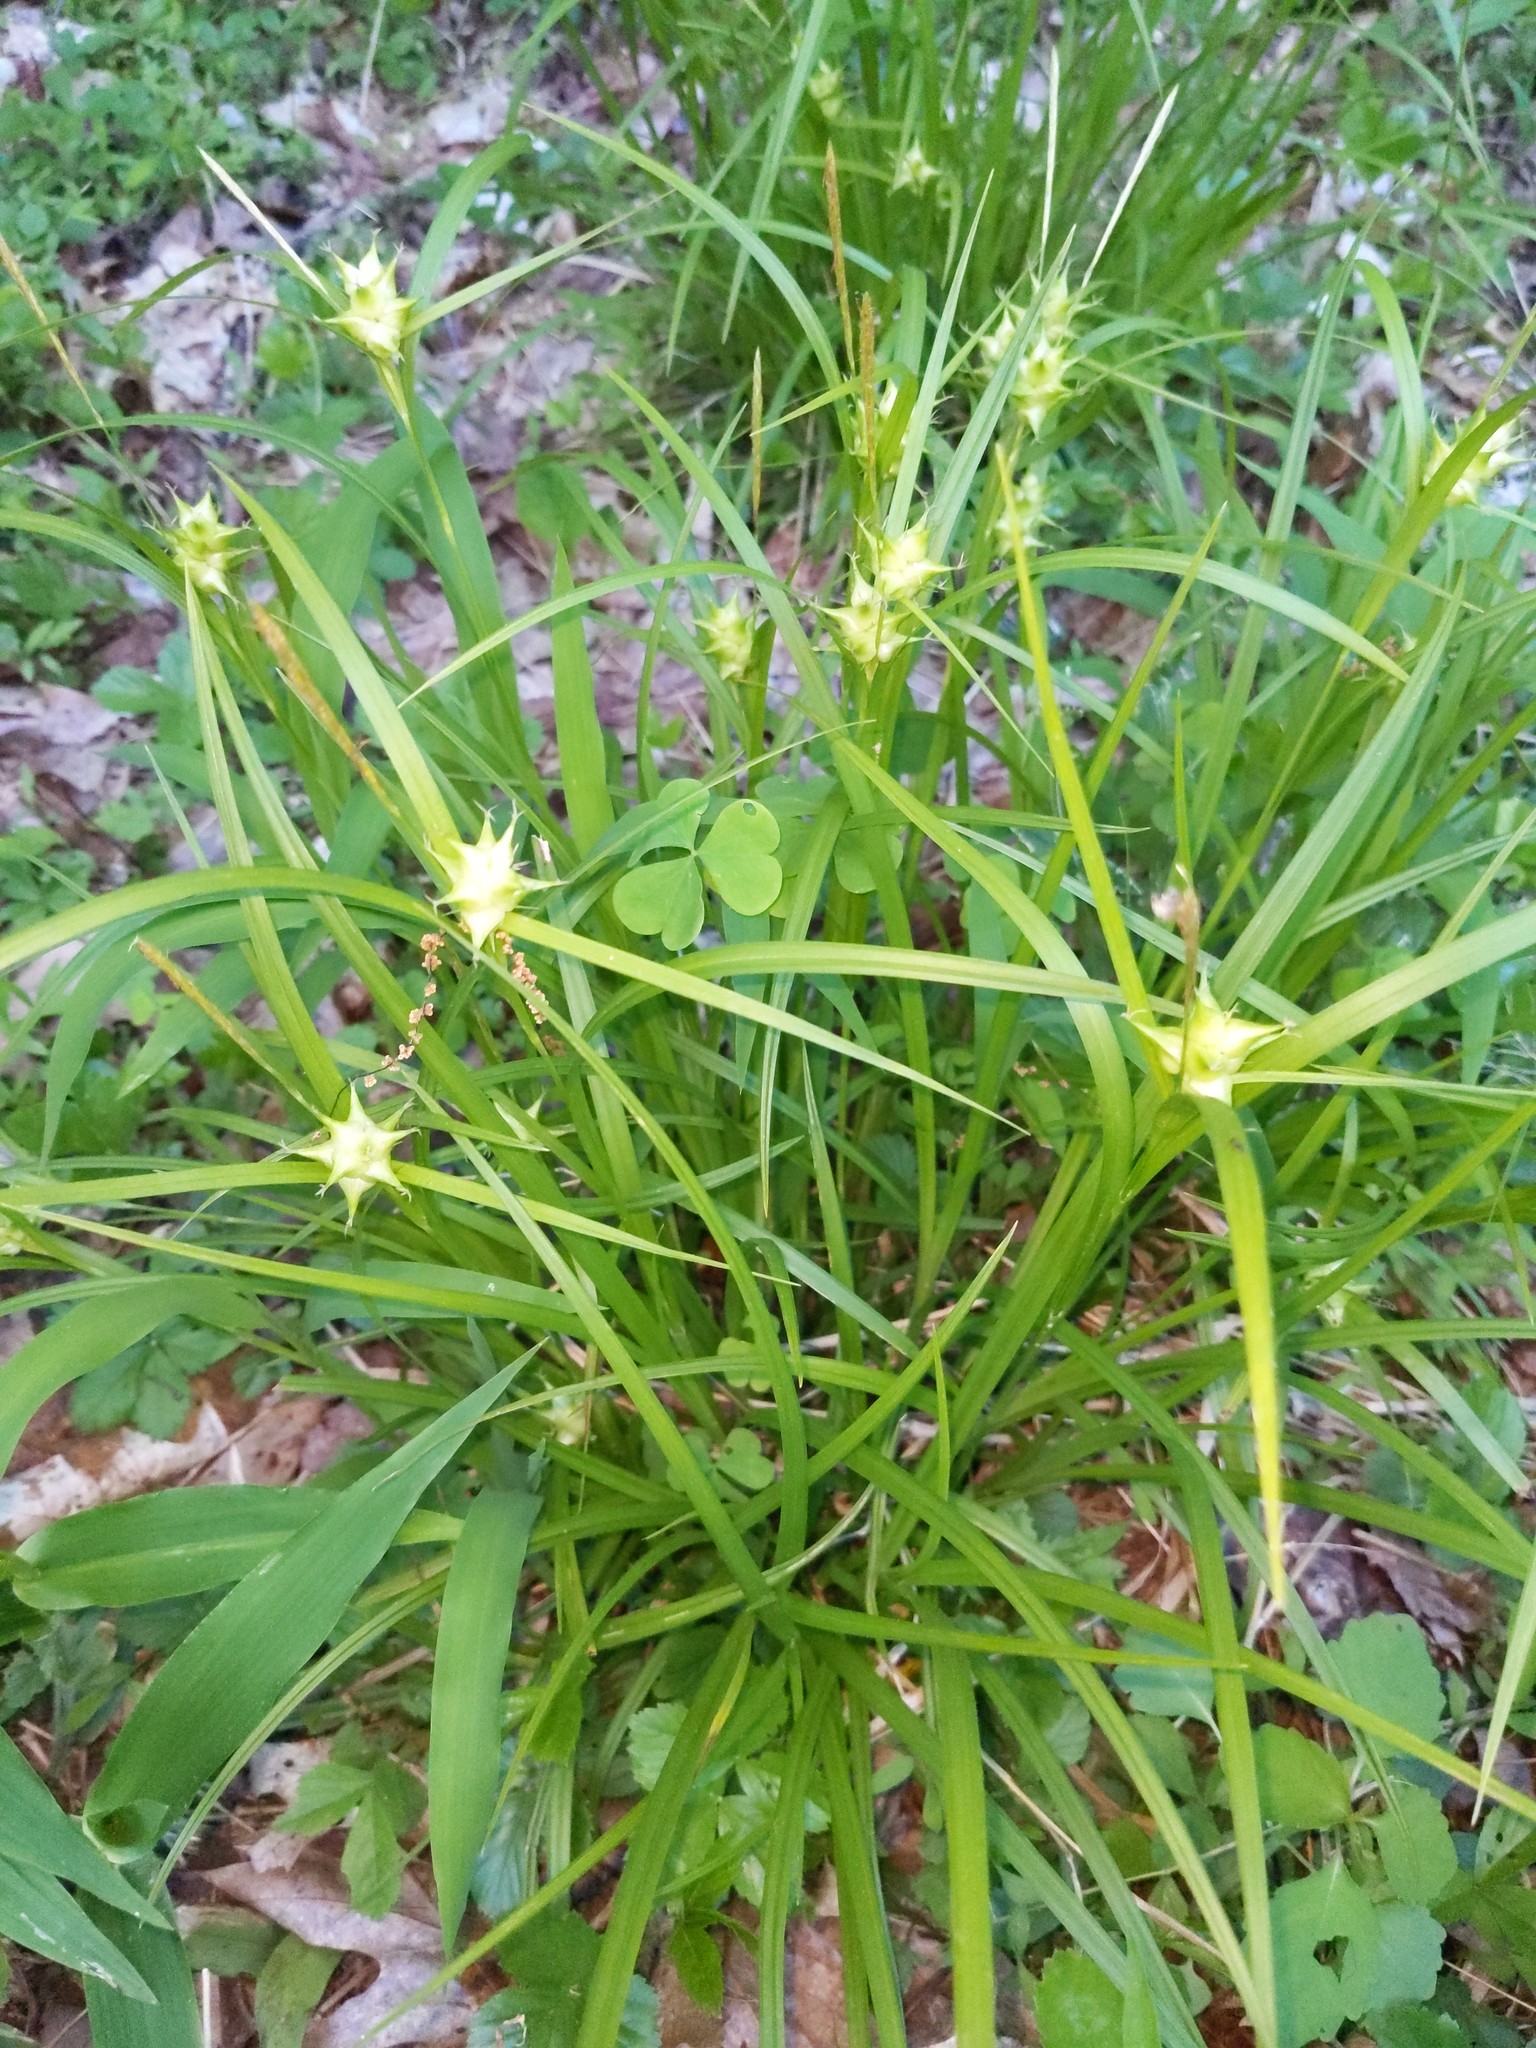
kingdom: Plantae
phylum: Tracheophyta
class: Liliopsida
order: Poales
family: Cyperaceae
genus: Carex
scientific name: Carex intumescens
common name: Greater bladder sedge
